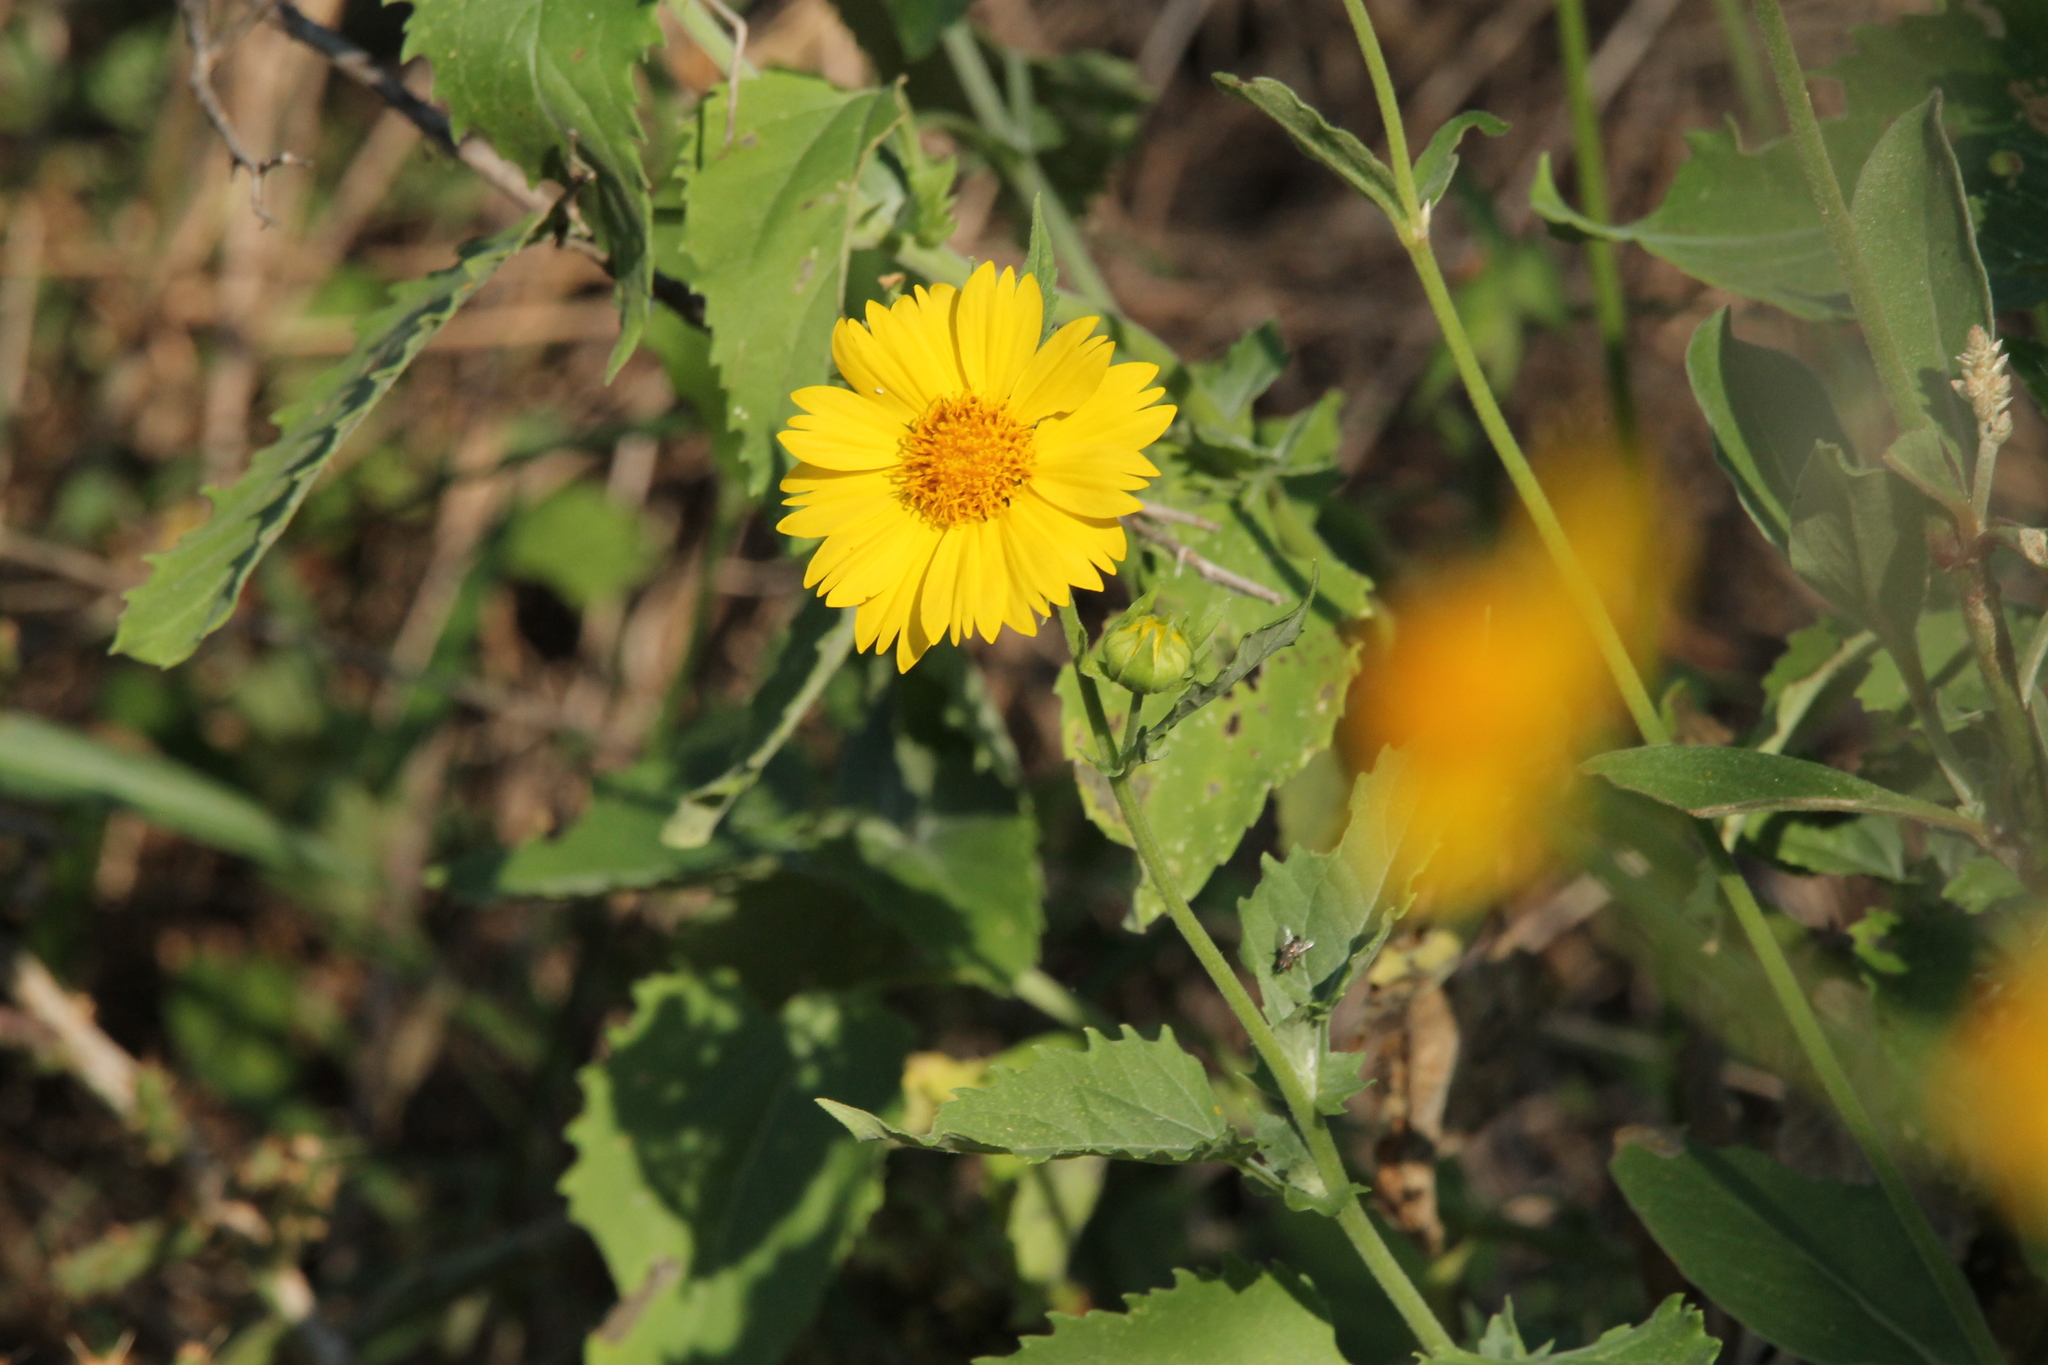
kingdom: Plantae
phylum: Tracheophyta
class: Magnoliopsida
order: Asterales
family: Asteraceae
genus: Verbesina
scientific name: Verbesina encelioides
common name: Golden crownbeard
